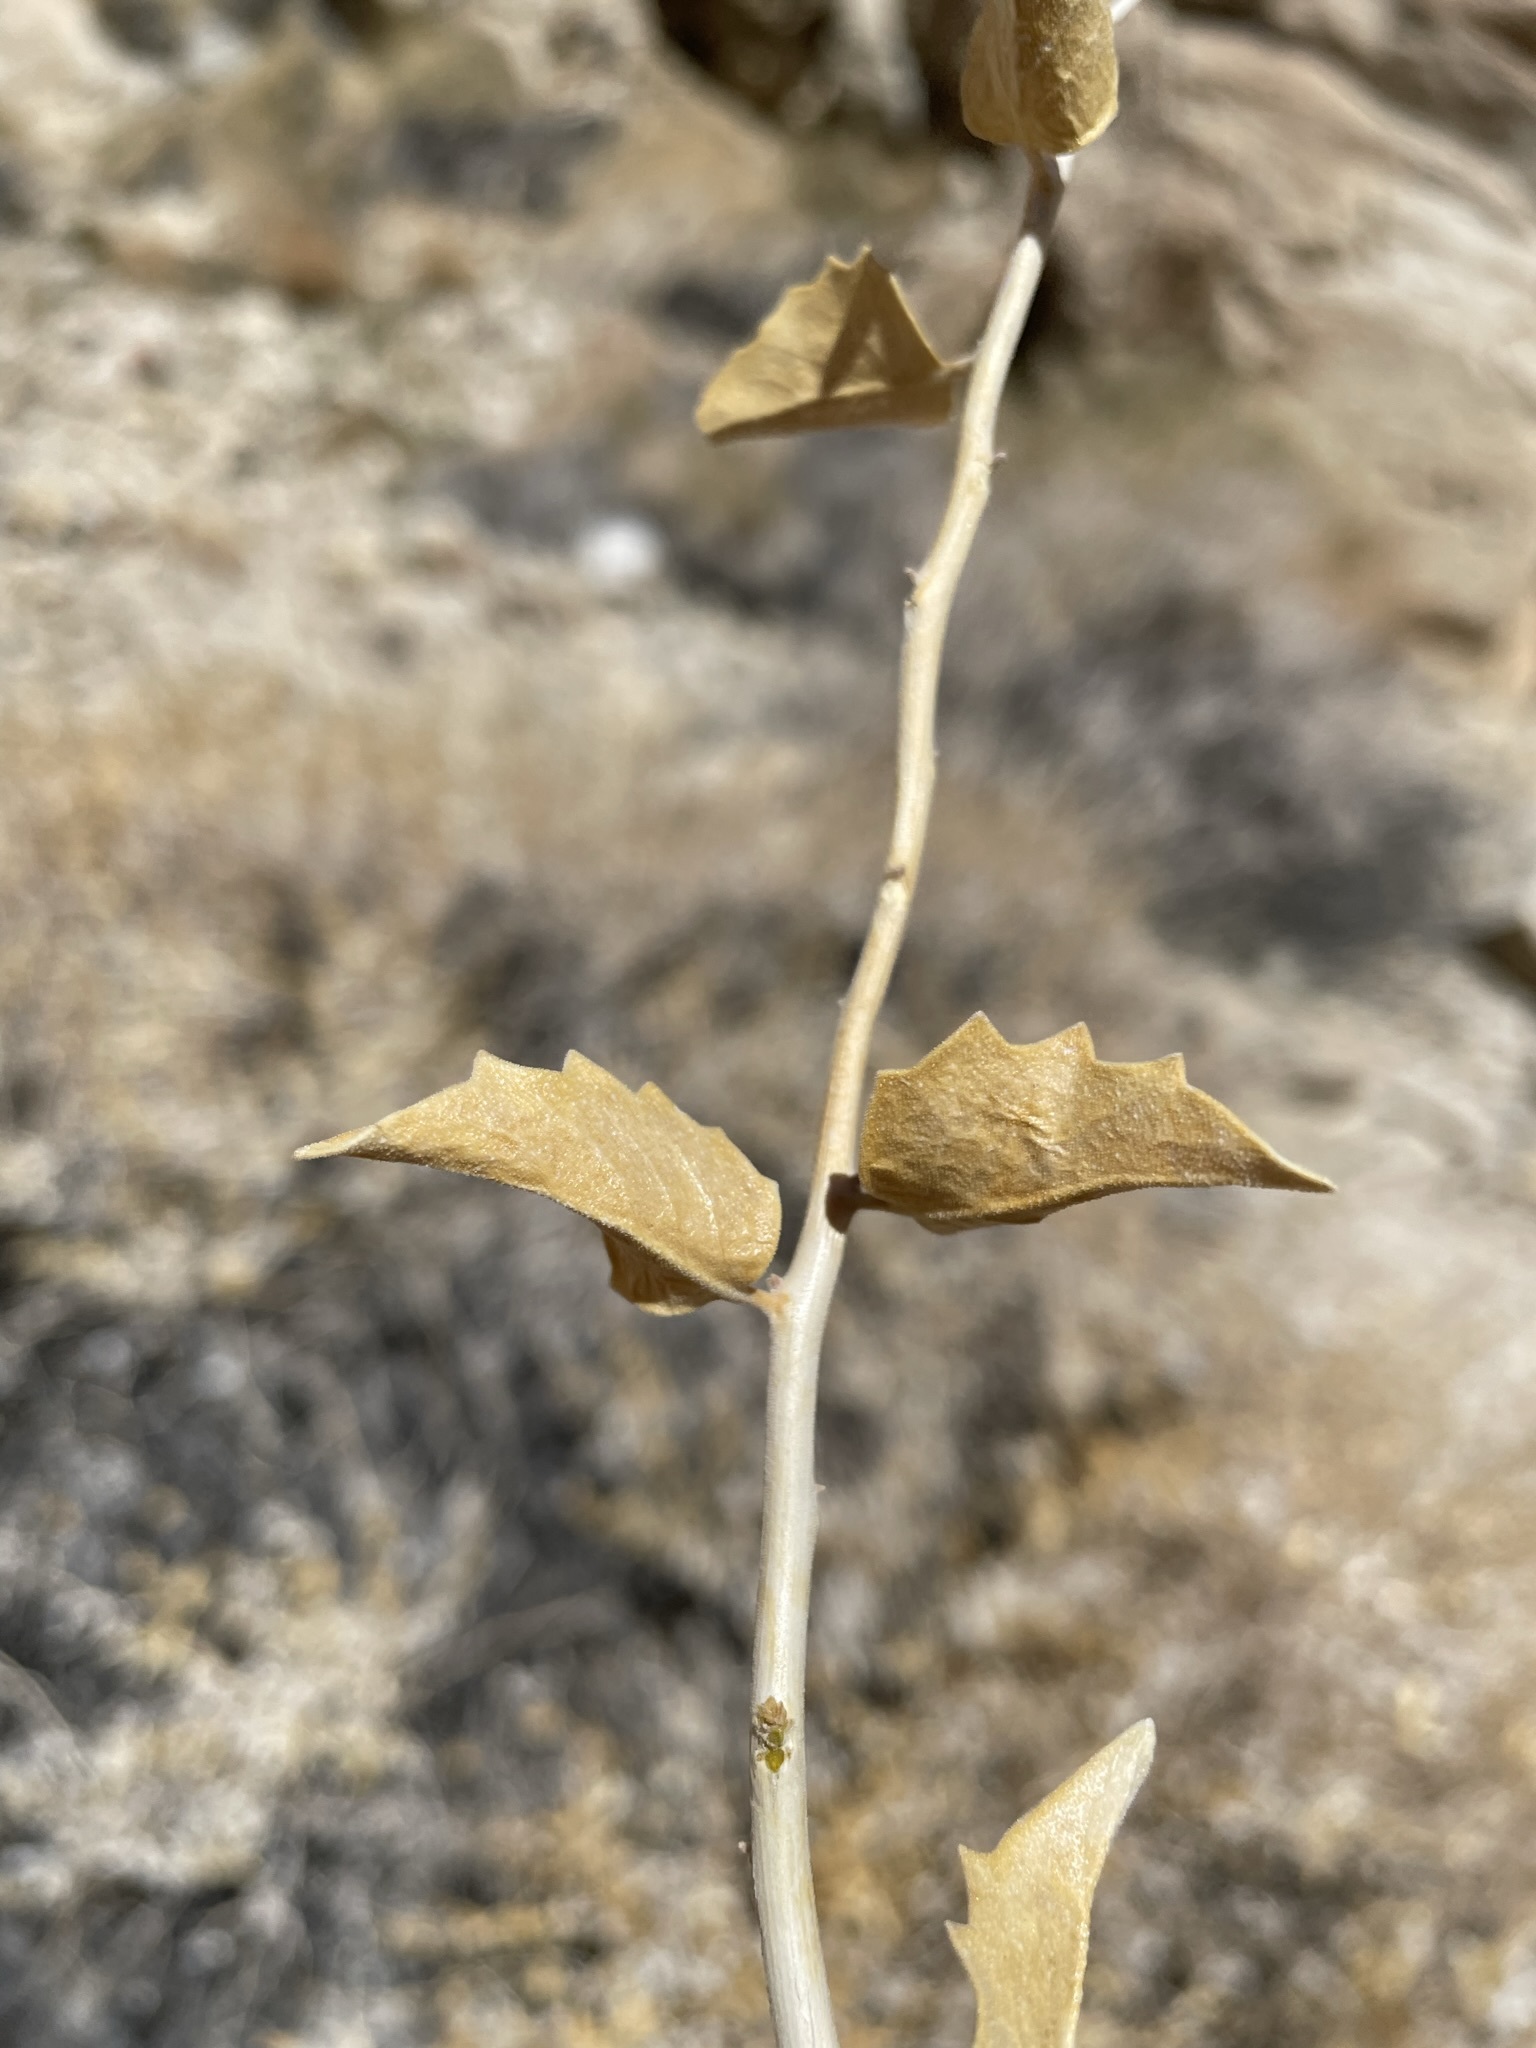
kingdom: Plantae
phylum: Tracheophyta
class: Magnoliopsida
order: Cornales
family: Loasaceae
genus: Petalonyx
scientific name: Petalonyx nitidus
